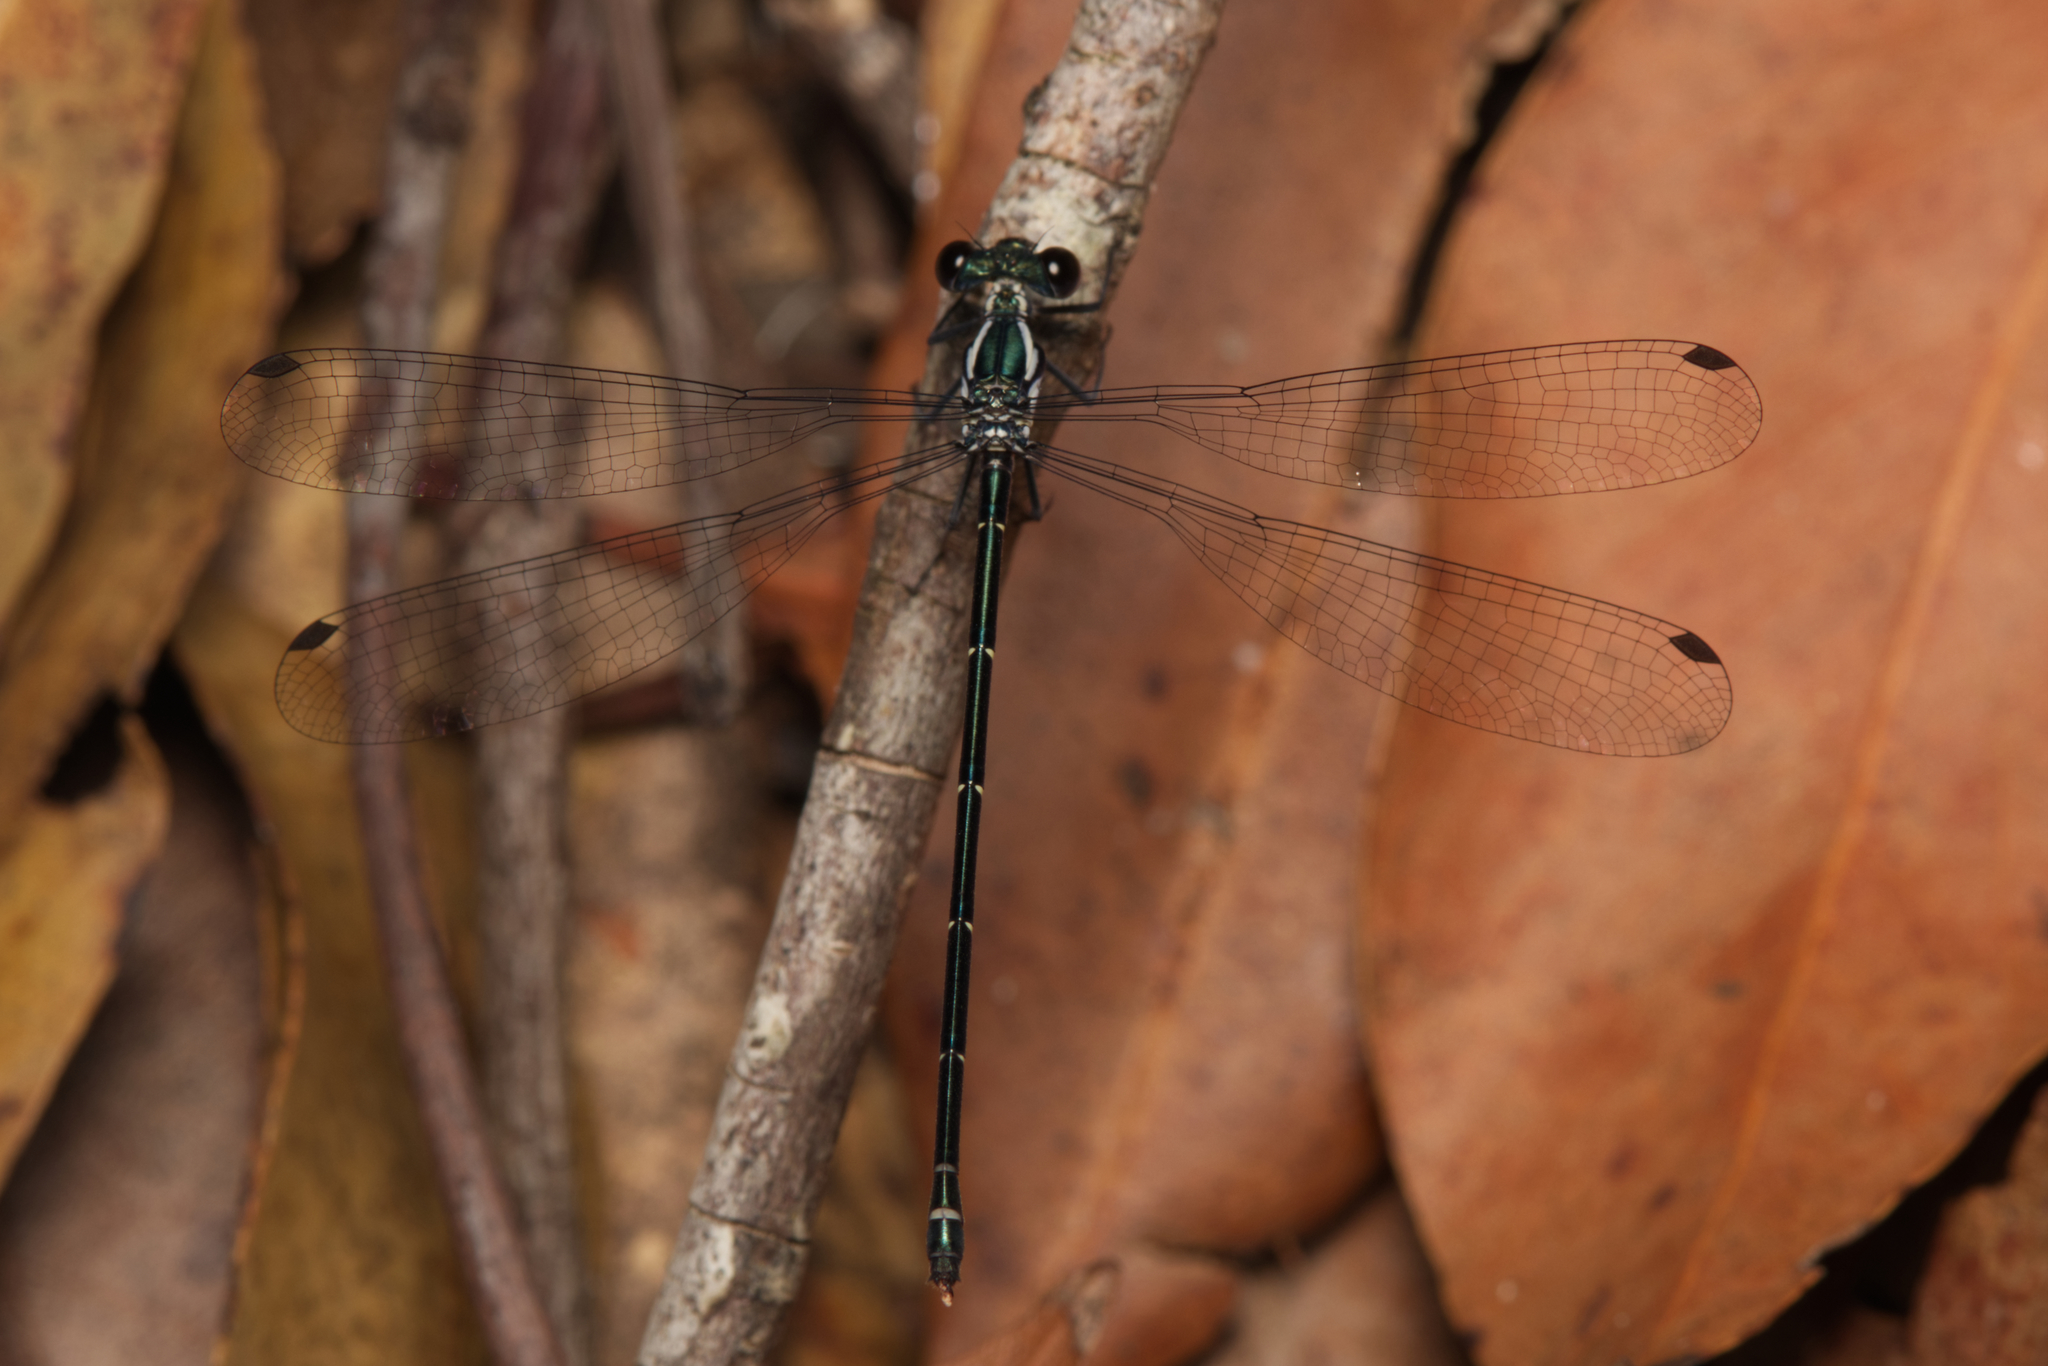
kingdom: Animalia
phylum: Arthropoda
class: Insecta
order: Odonata
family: Argiolestidae
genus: Austroargiolestes
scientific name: Austroargiolestes icteromelas
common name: Common flatwing
